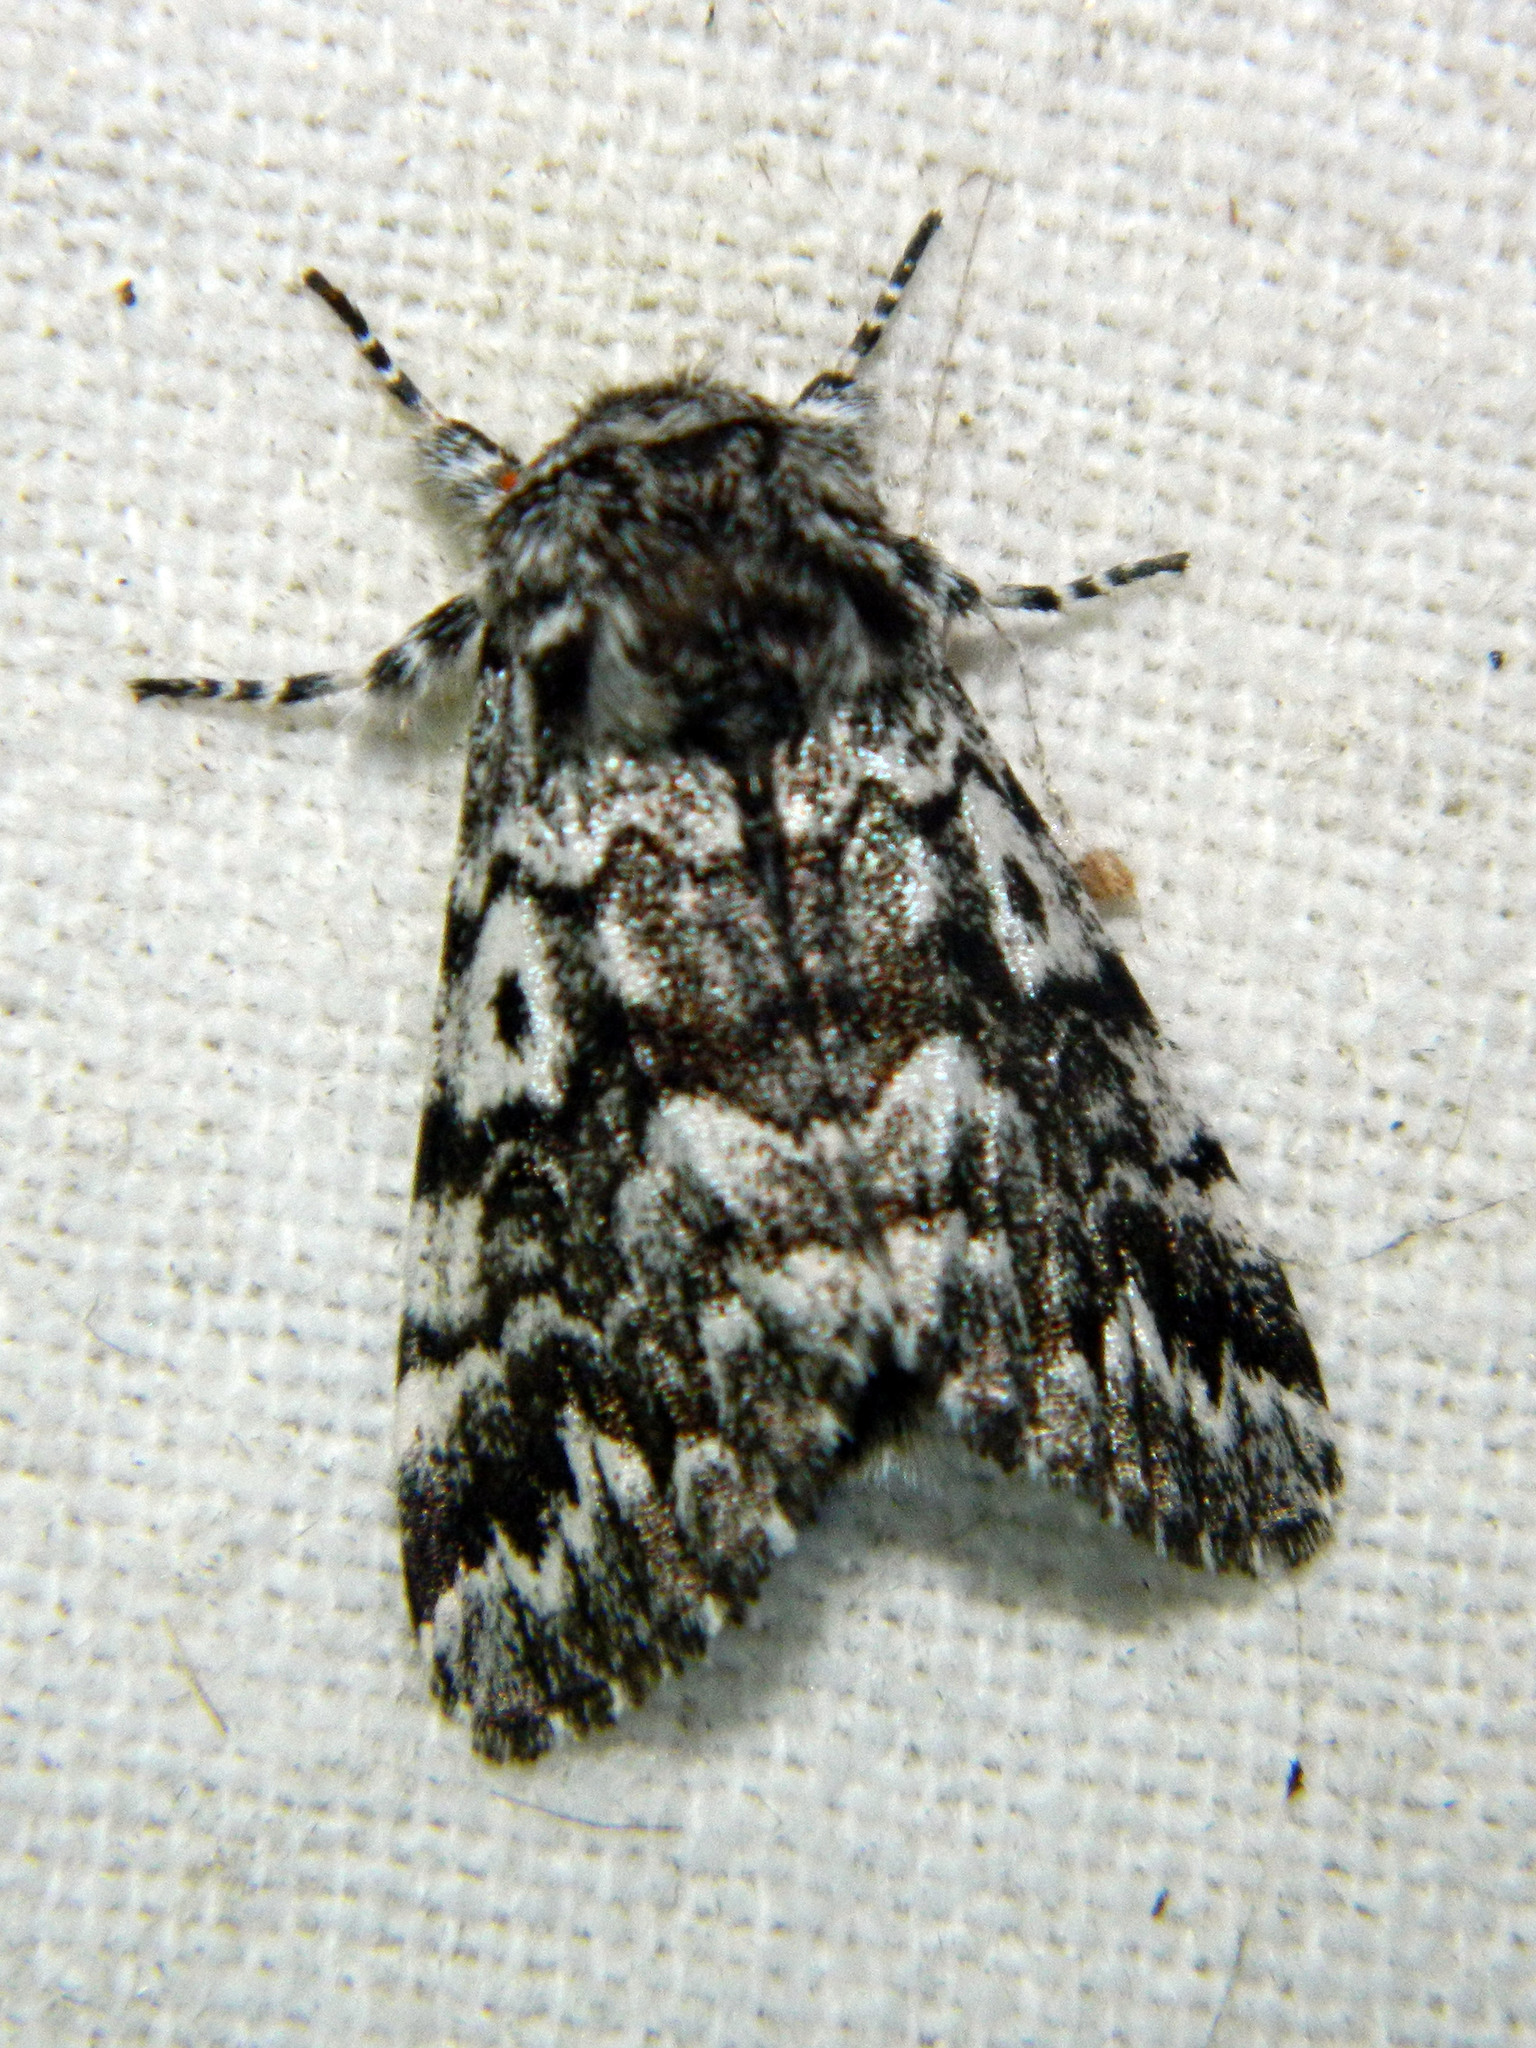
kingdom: Animalia
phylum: Arthropoda
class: Insecta
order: Lepidoptera
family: Noctuidae
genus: Panthea
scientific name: Panthea acronyctoides
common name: Black zigzag moth
